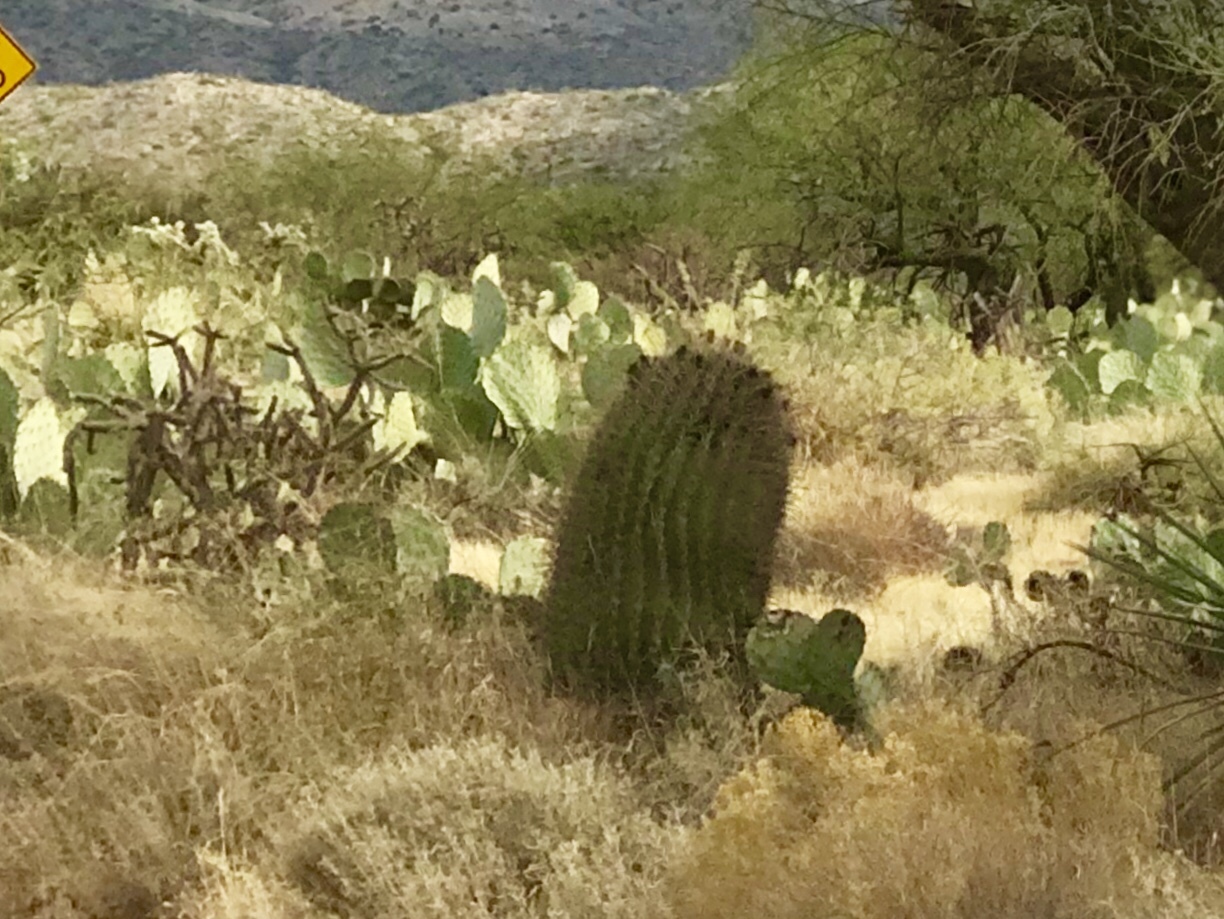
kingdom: Plantae
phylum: Tracheophyta
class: Magnoliopsida
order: Caryophyllales
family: Cactaceae
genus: Ferocactus
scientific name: Ferocactus wislizeni
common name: Candy barrel cactus
